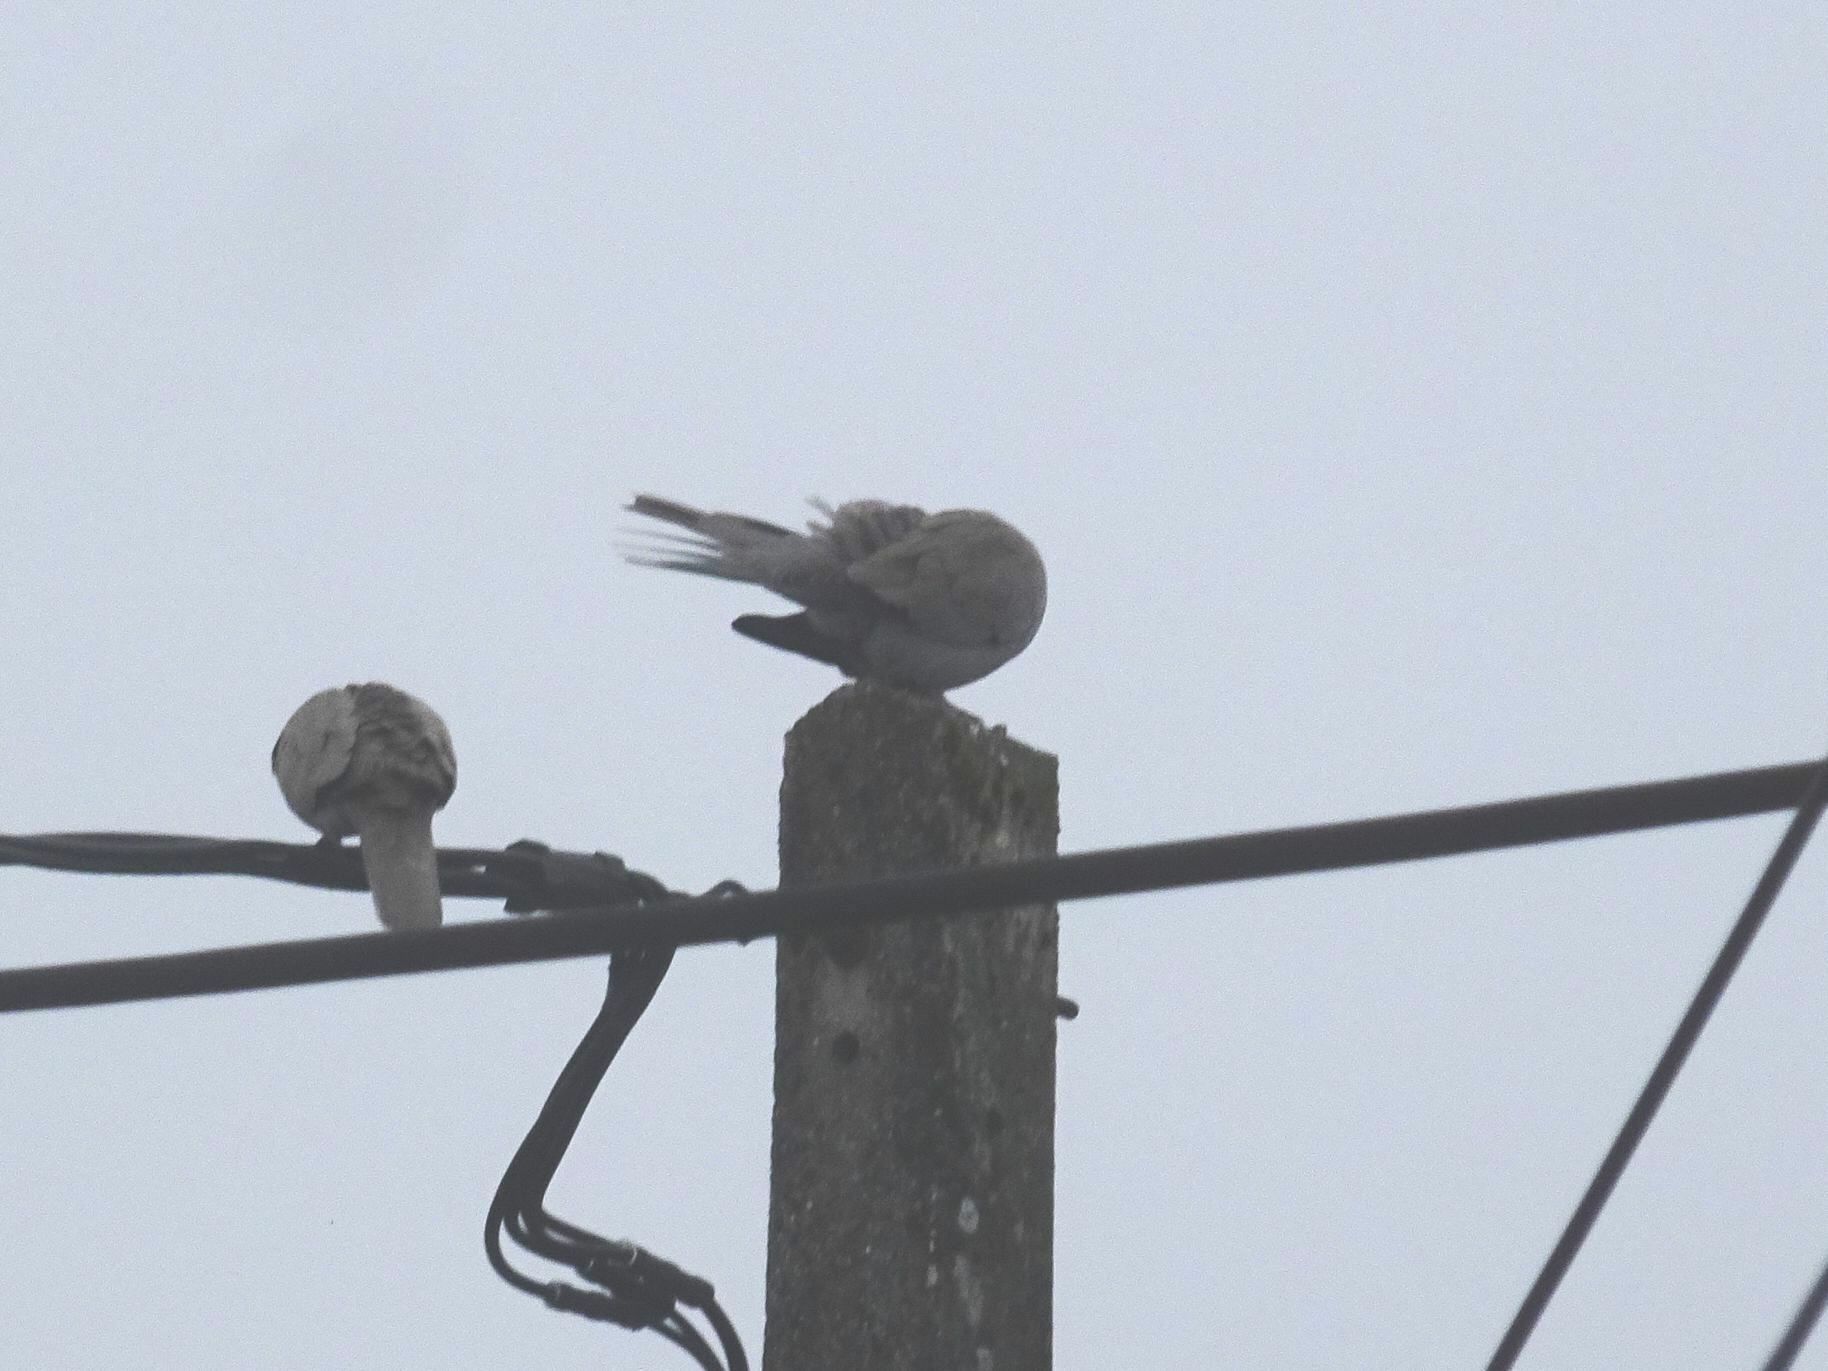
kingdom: Animalia
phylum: Chordata
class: Aves
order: Columbiformes
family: Columbidae
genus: Streptopelia
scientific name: Streptopelia decaocto
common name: Eurasian collared dove
